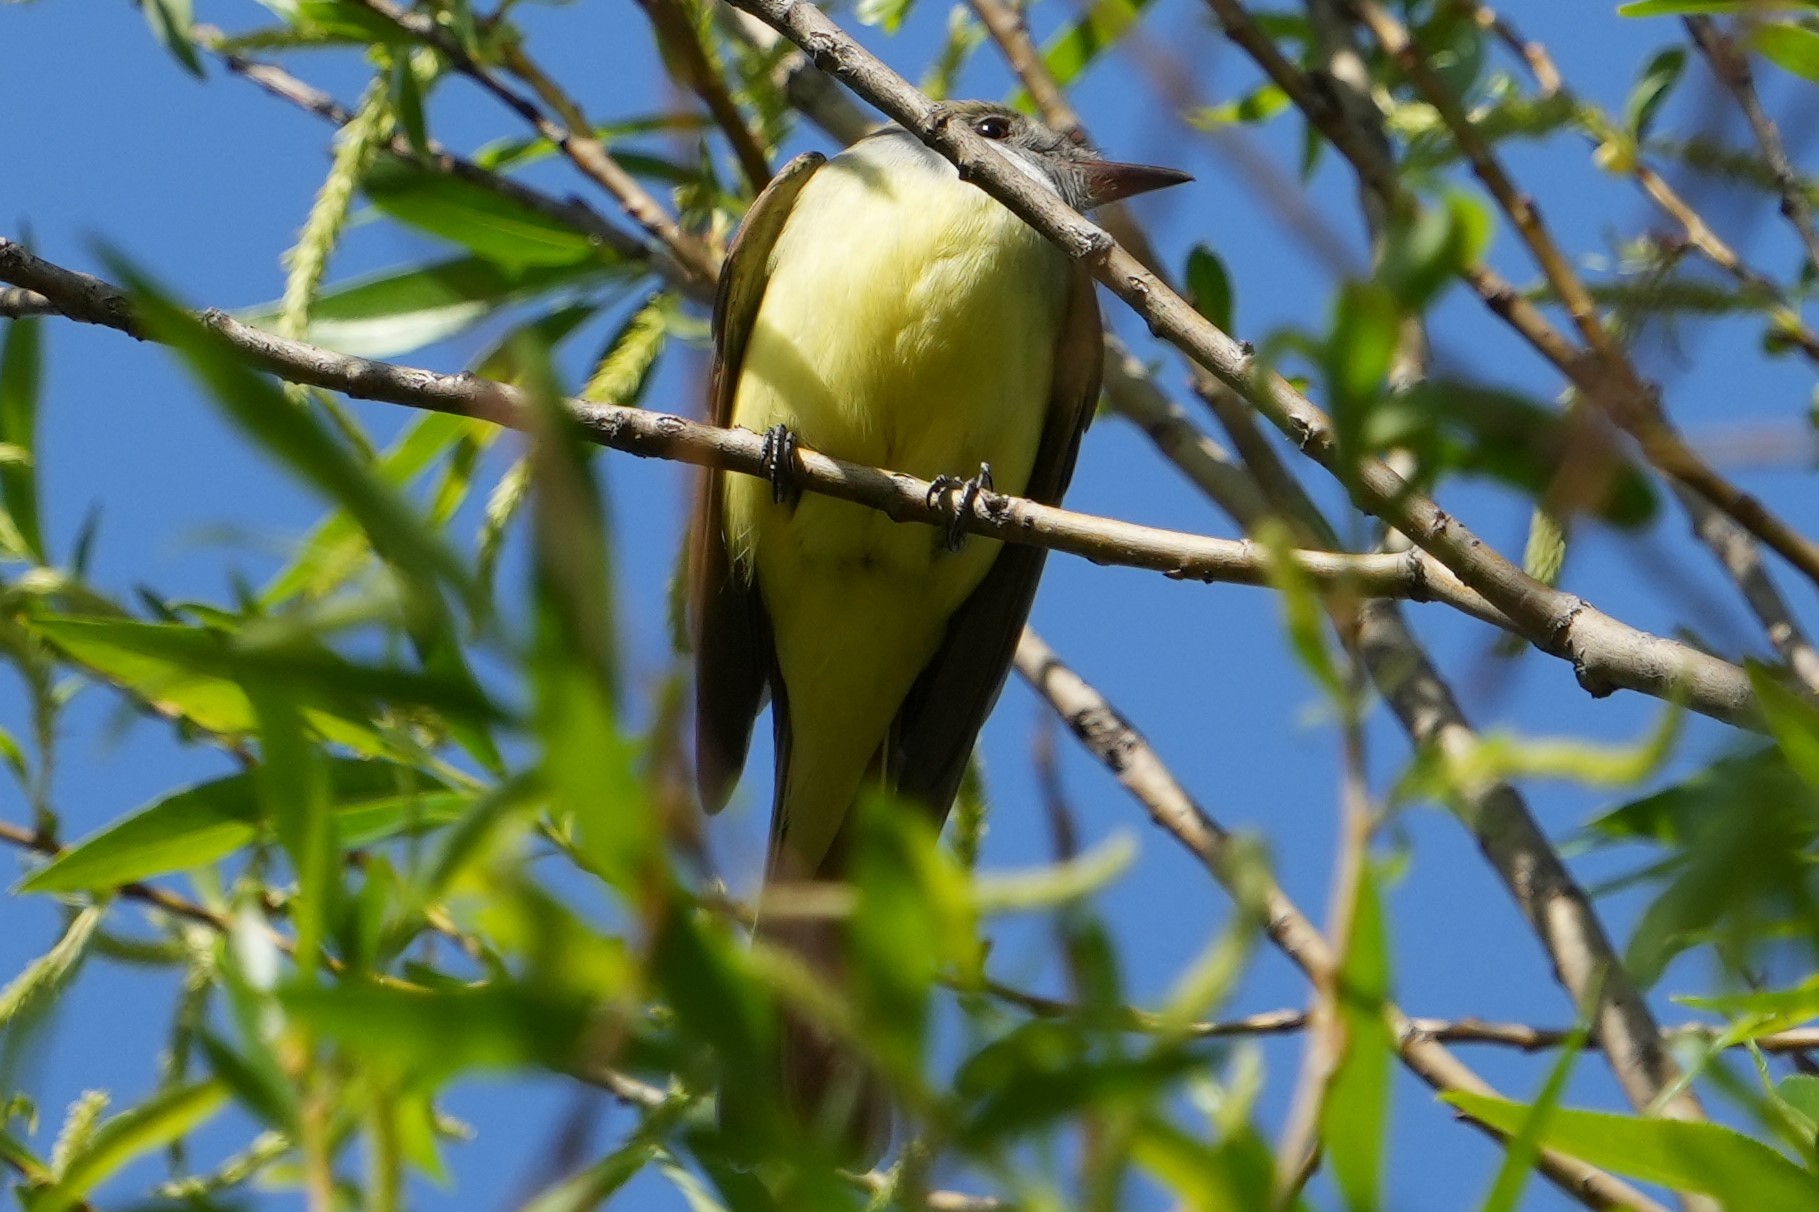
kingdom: Animalia
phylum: Chordata
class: Aves
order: Passeriformes
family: Tyrannidae
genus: Myiarchus
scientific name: Myiarchus crinitus
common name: Great crested flycatcher
